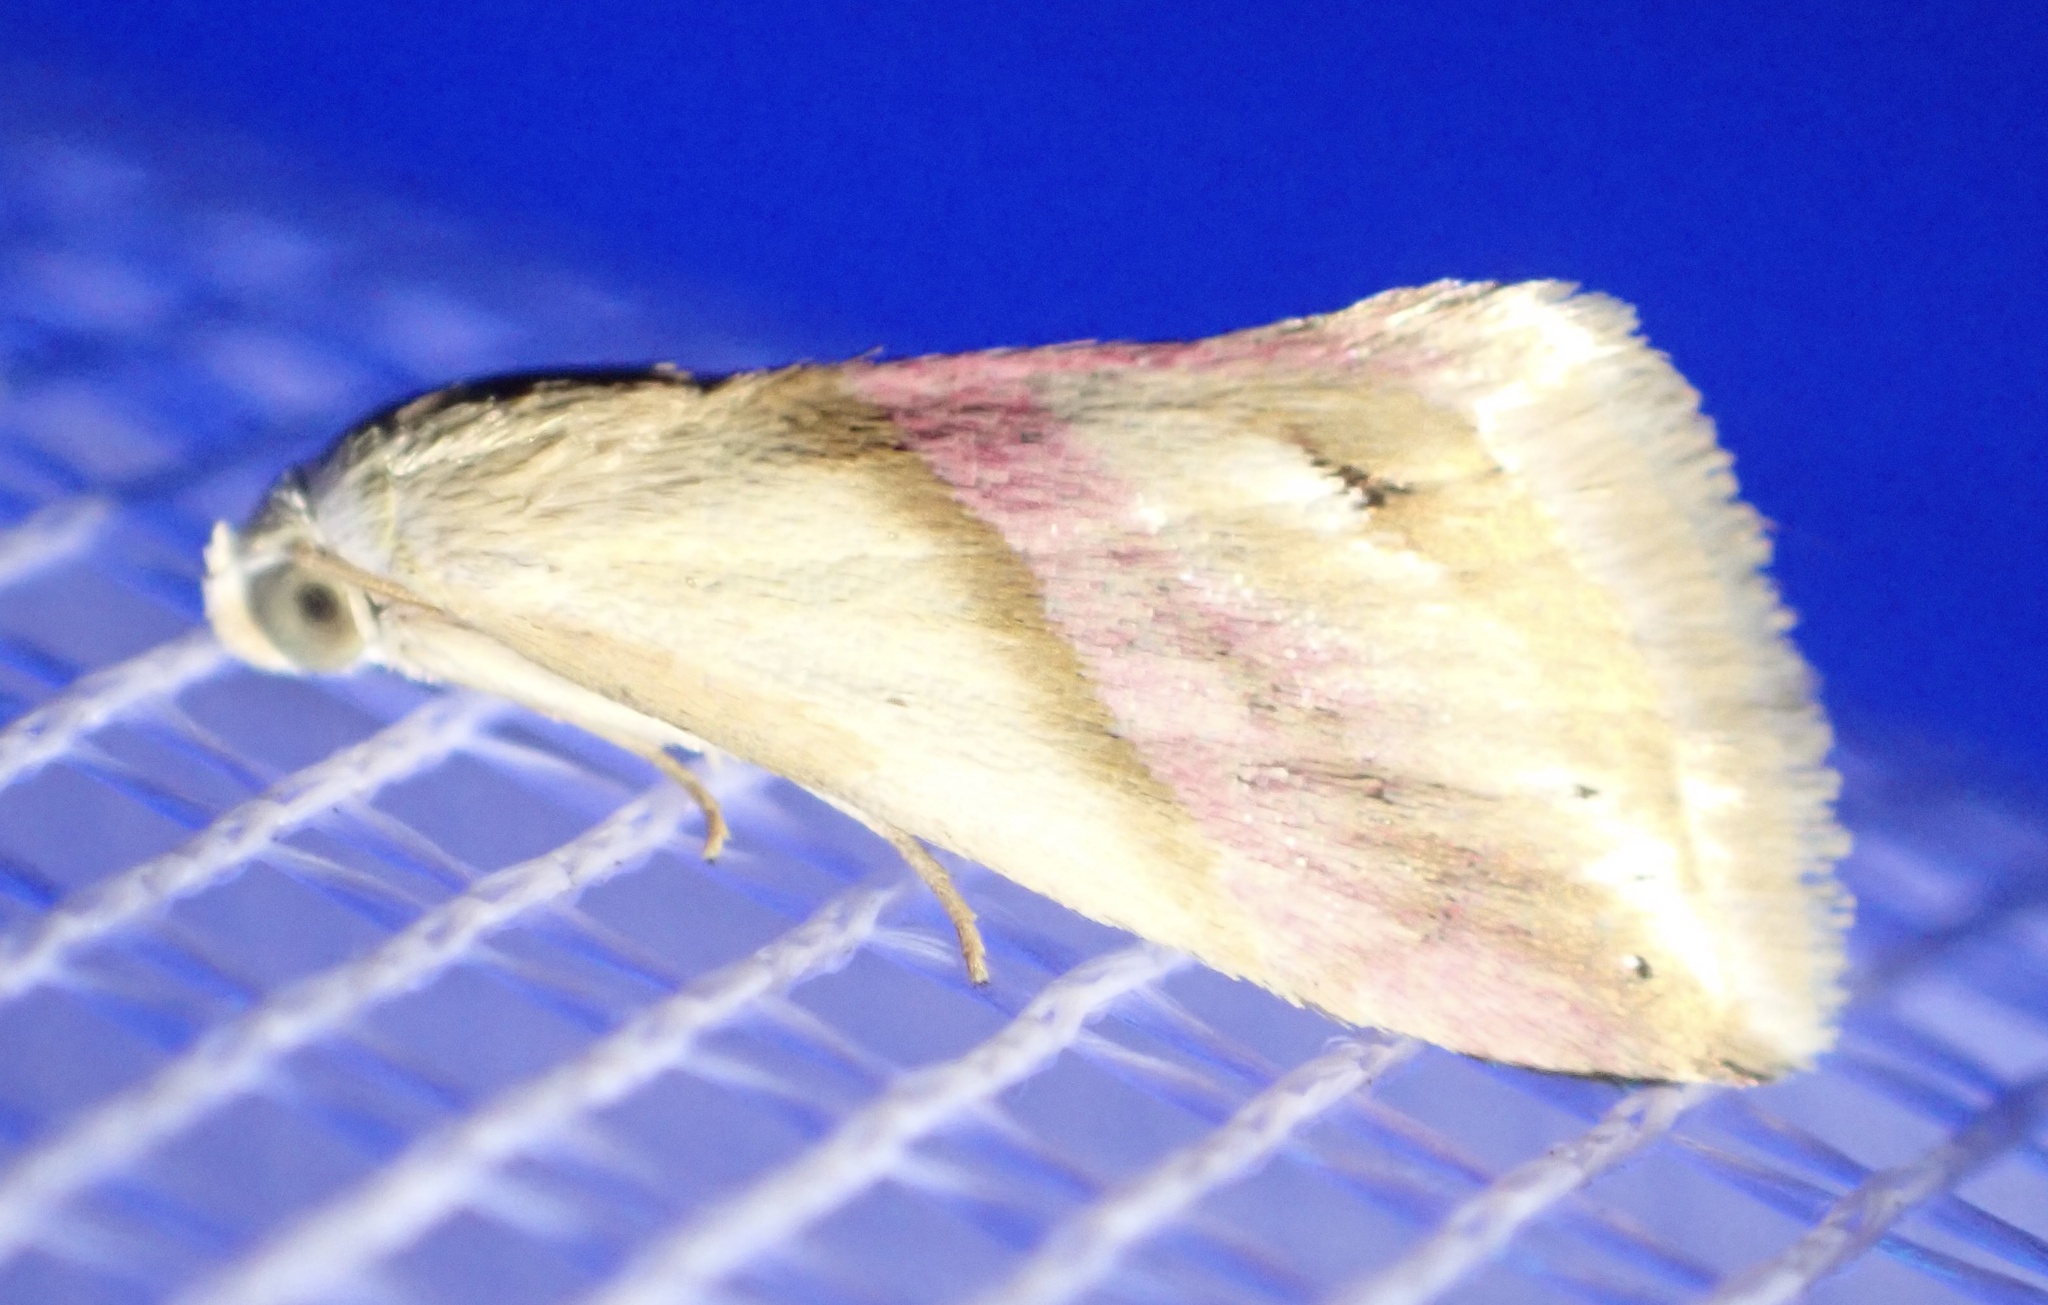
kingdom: Animalia
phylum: Arthropoda
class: Insecta
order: Lepidoptera
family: Noctuidae
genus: Eublemma
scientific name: Eublemma cochylioides
